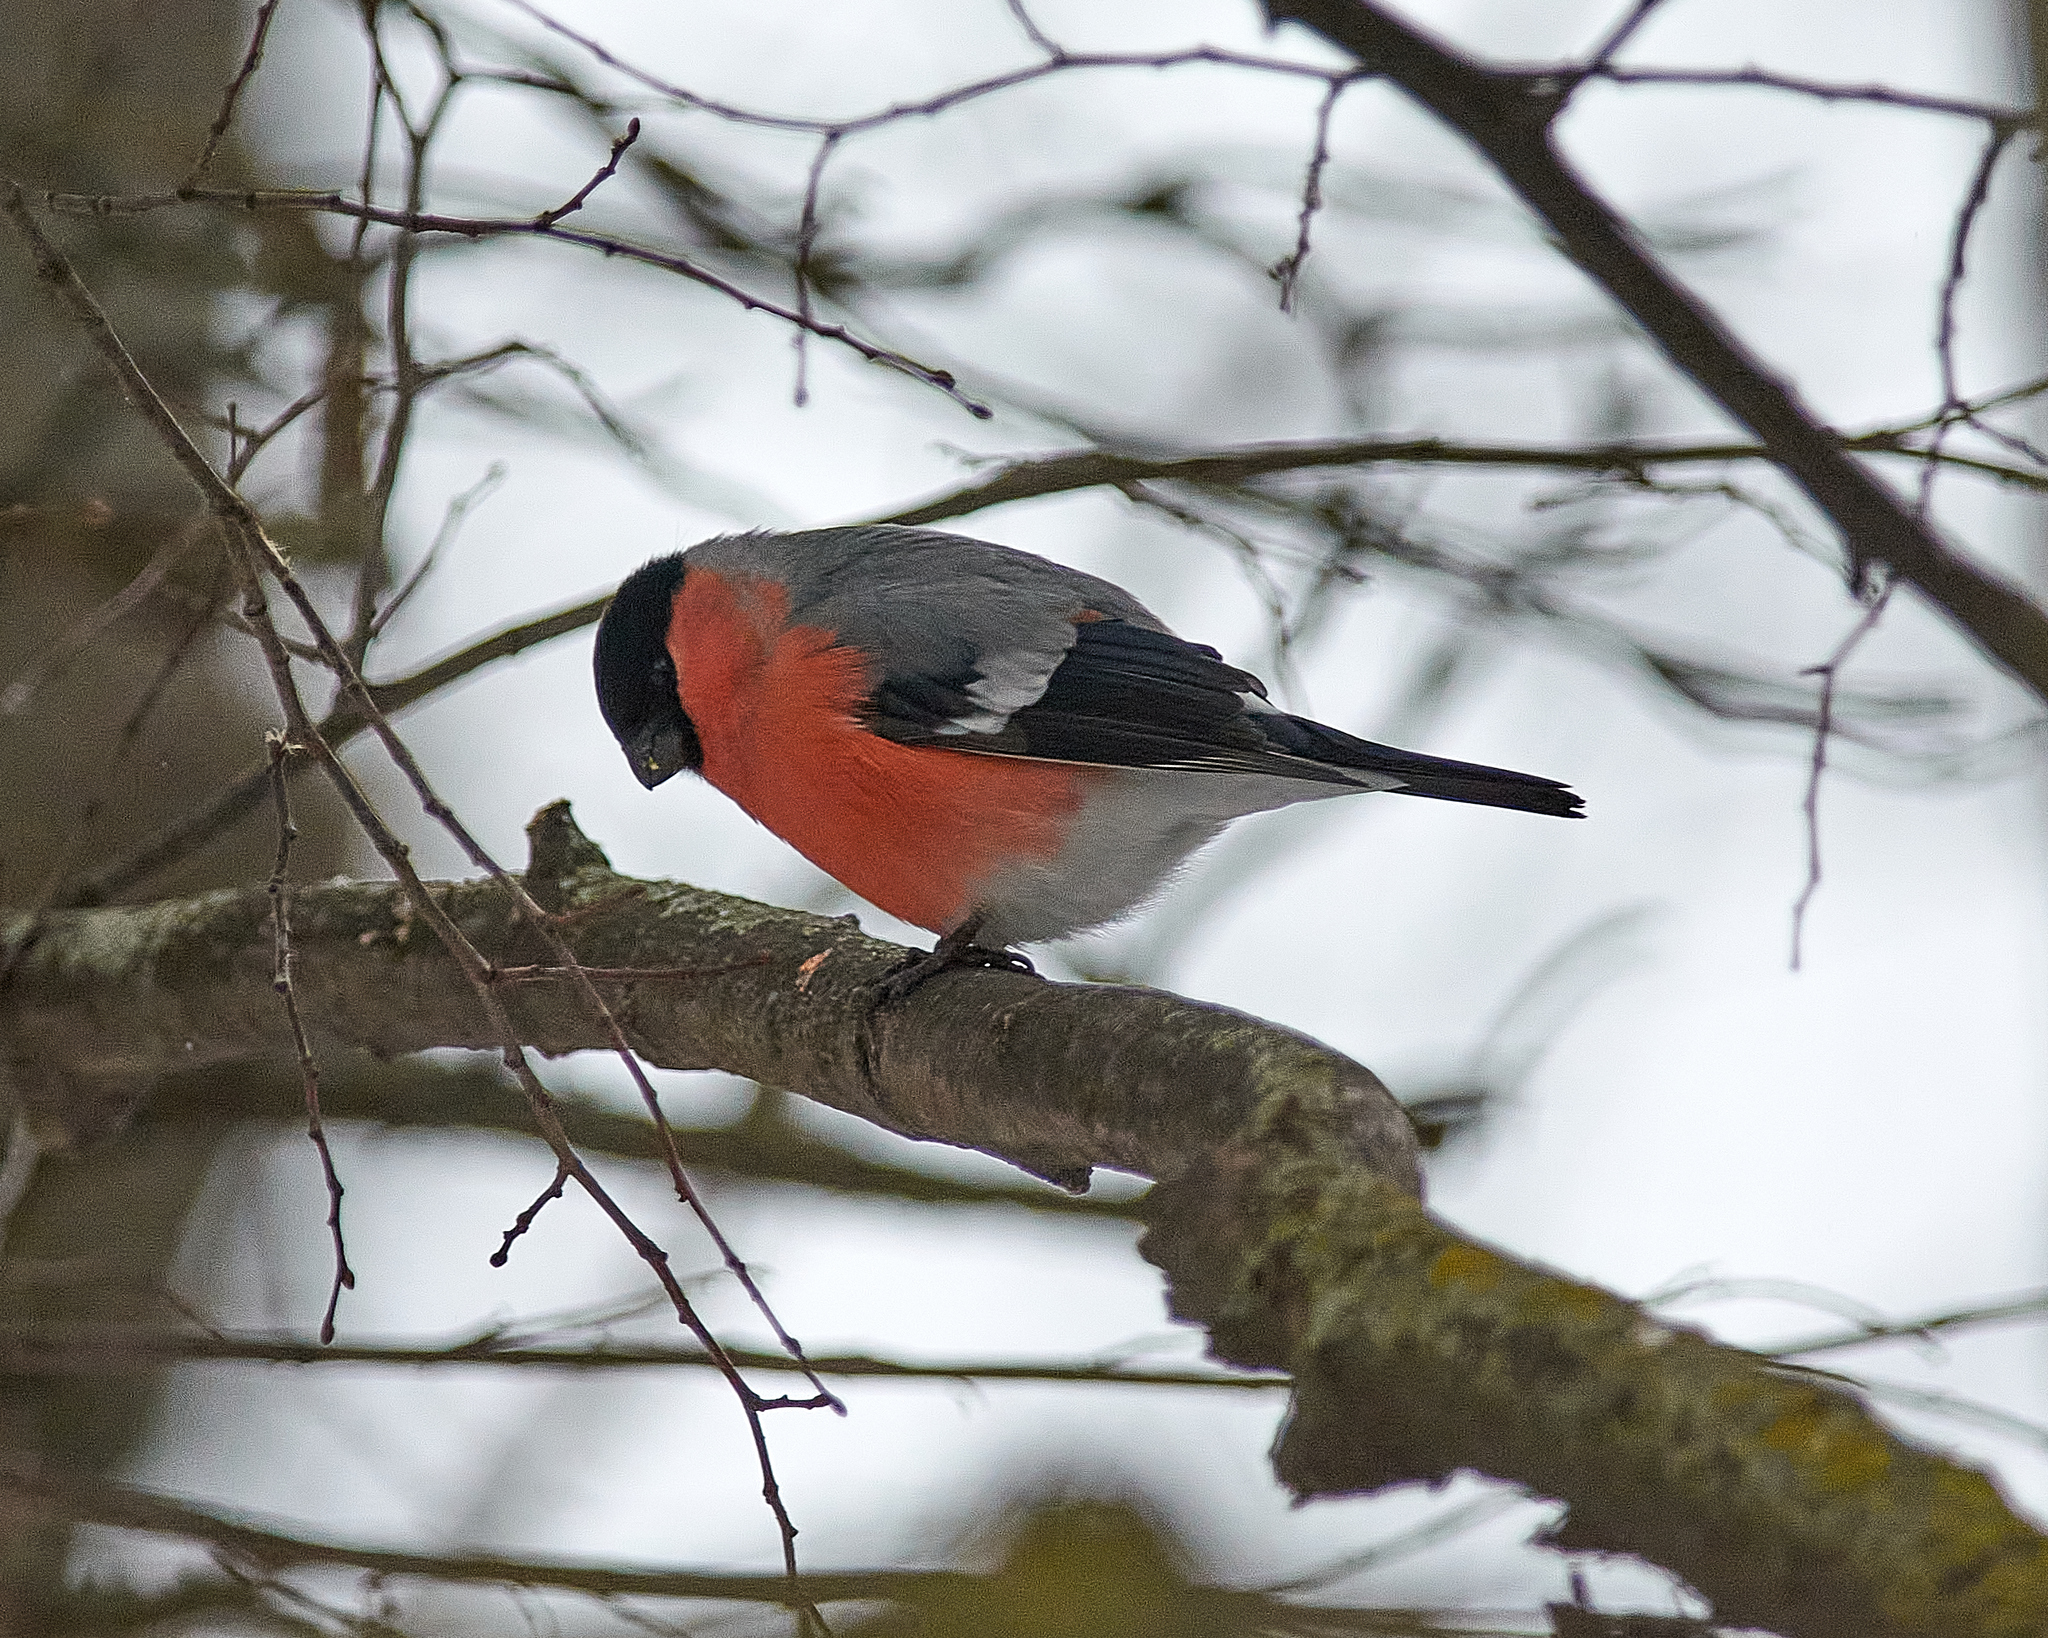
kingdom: Animalia
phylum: Chordata
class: Aves
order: Passeriformes
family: Fringillidae
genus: Pyrrhula
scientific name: Pyrrhula pyrrhula
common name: Eurasian bullfinch
